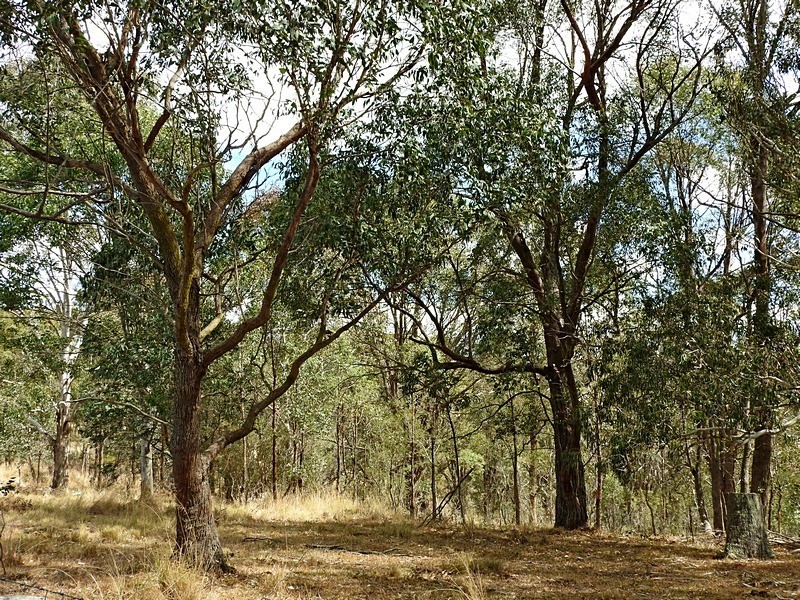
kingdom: Plantae
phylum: Tracheophyta
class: Magnoliopsida
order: Myrtales
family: Myrtaceae
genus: Eucalyptus
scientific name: Eucalyptus dives
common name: Blue peppermint
